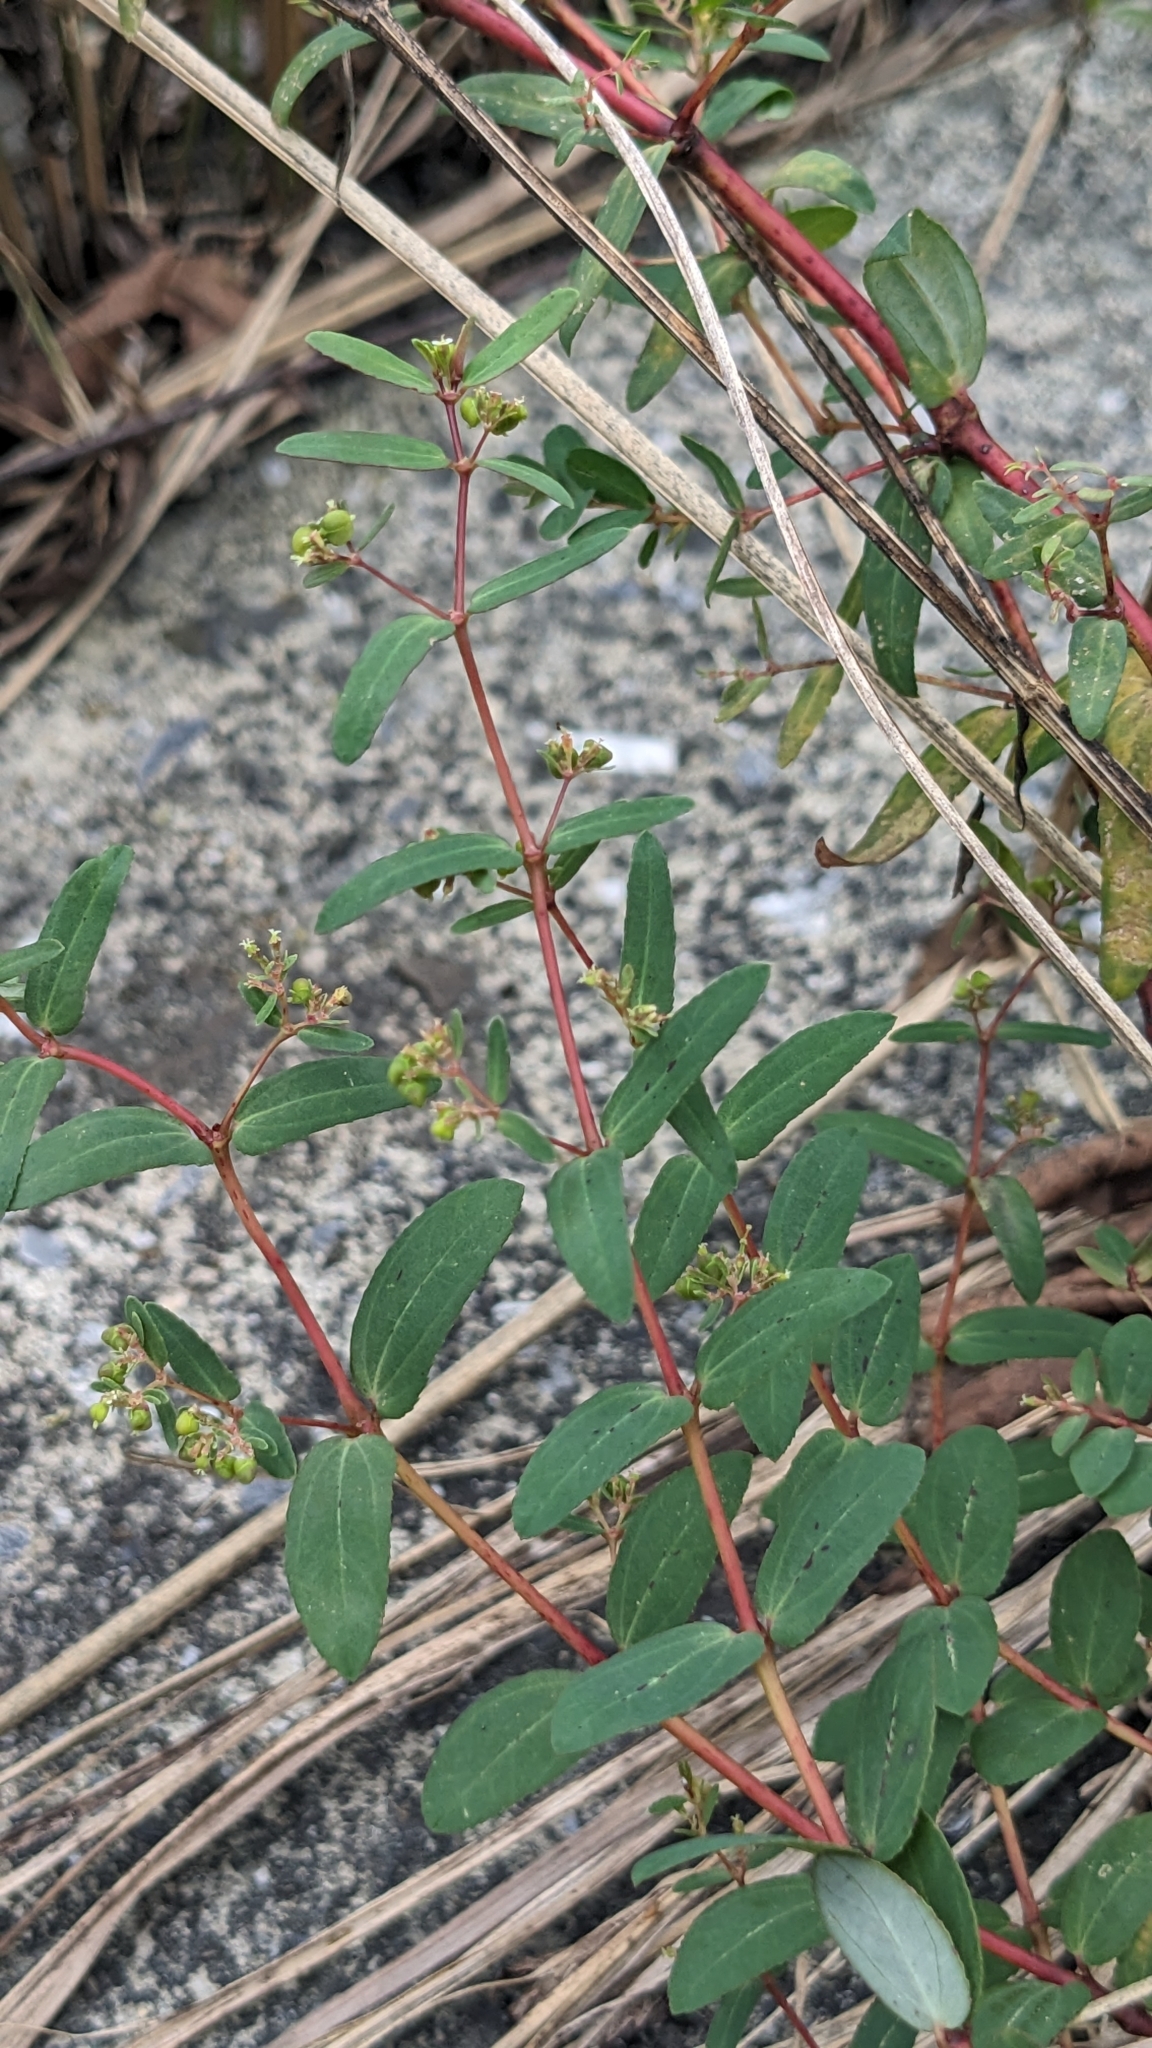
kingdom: Plantae
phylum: Tracheophyta
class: Magnoliopsida
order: Malpighiales
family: Euphorbiaceae
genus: Euphorbia
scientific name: Euphorbia hyssopifolia
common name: Hyssopleaf sandmat
